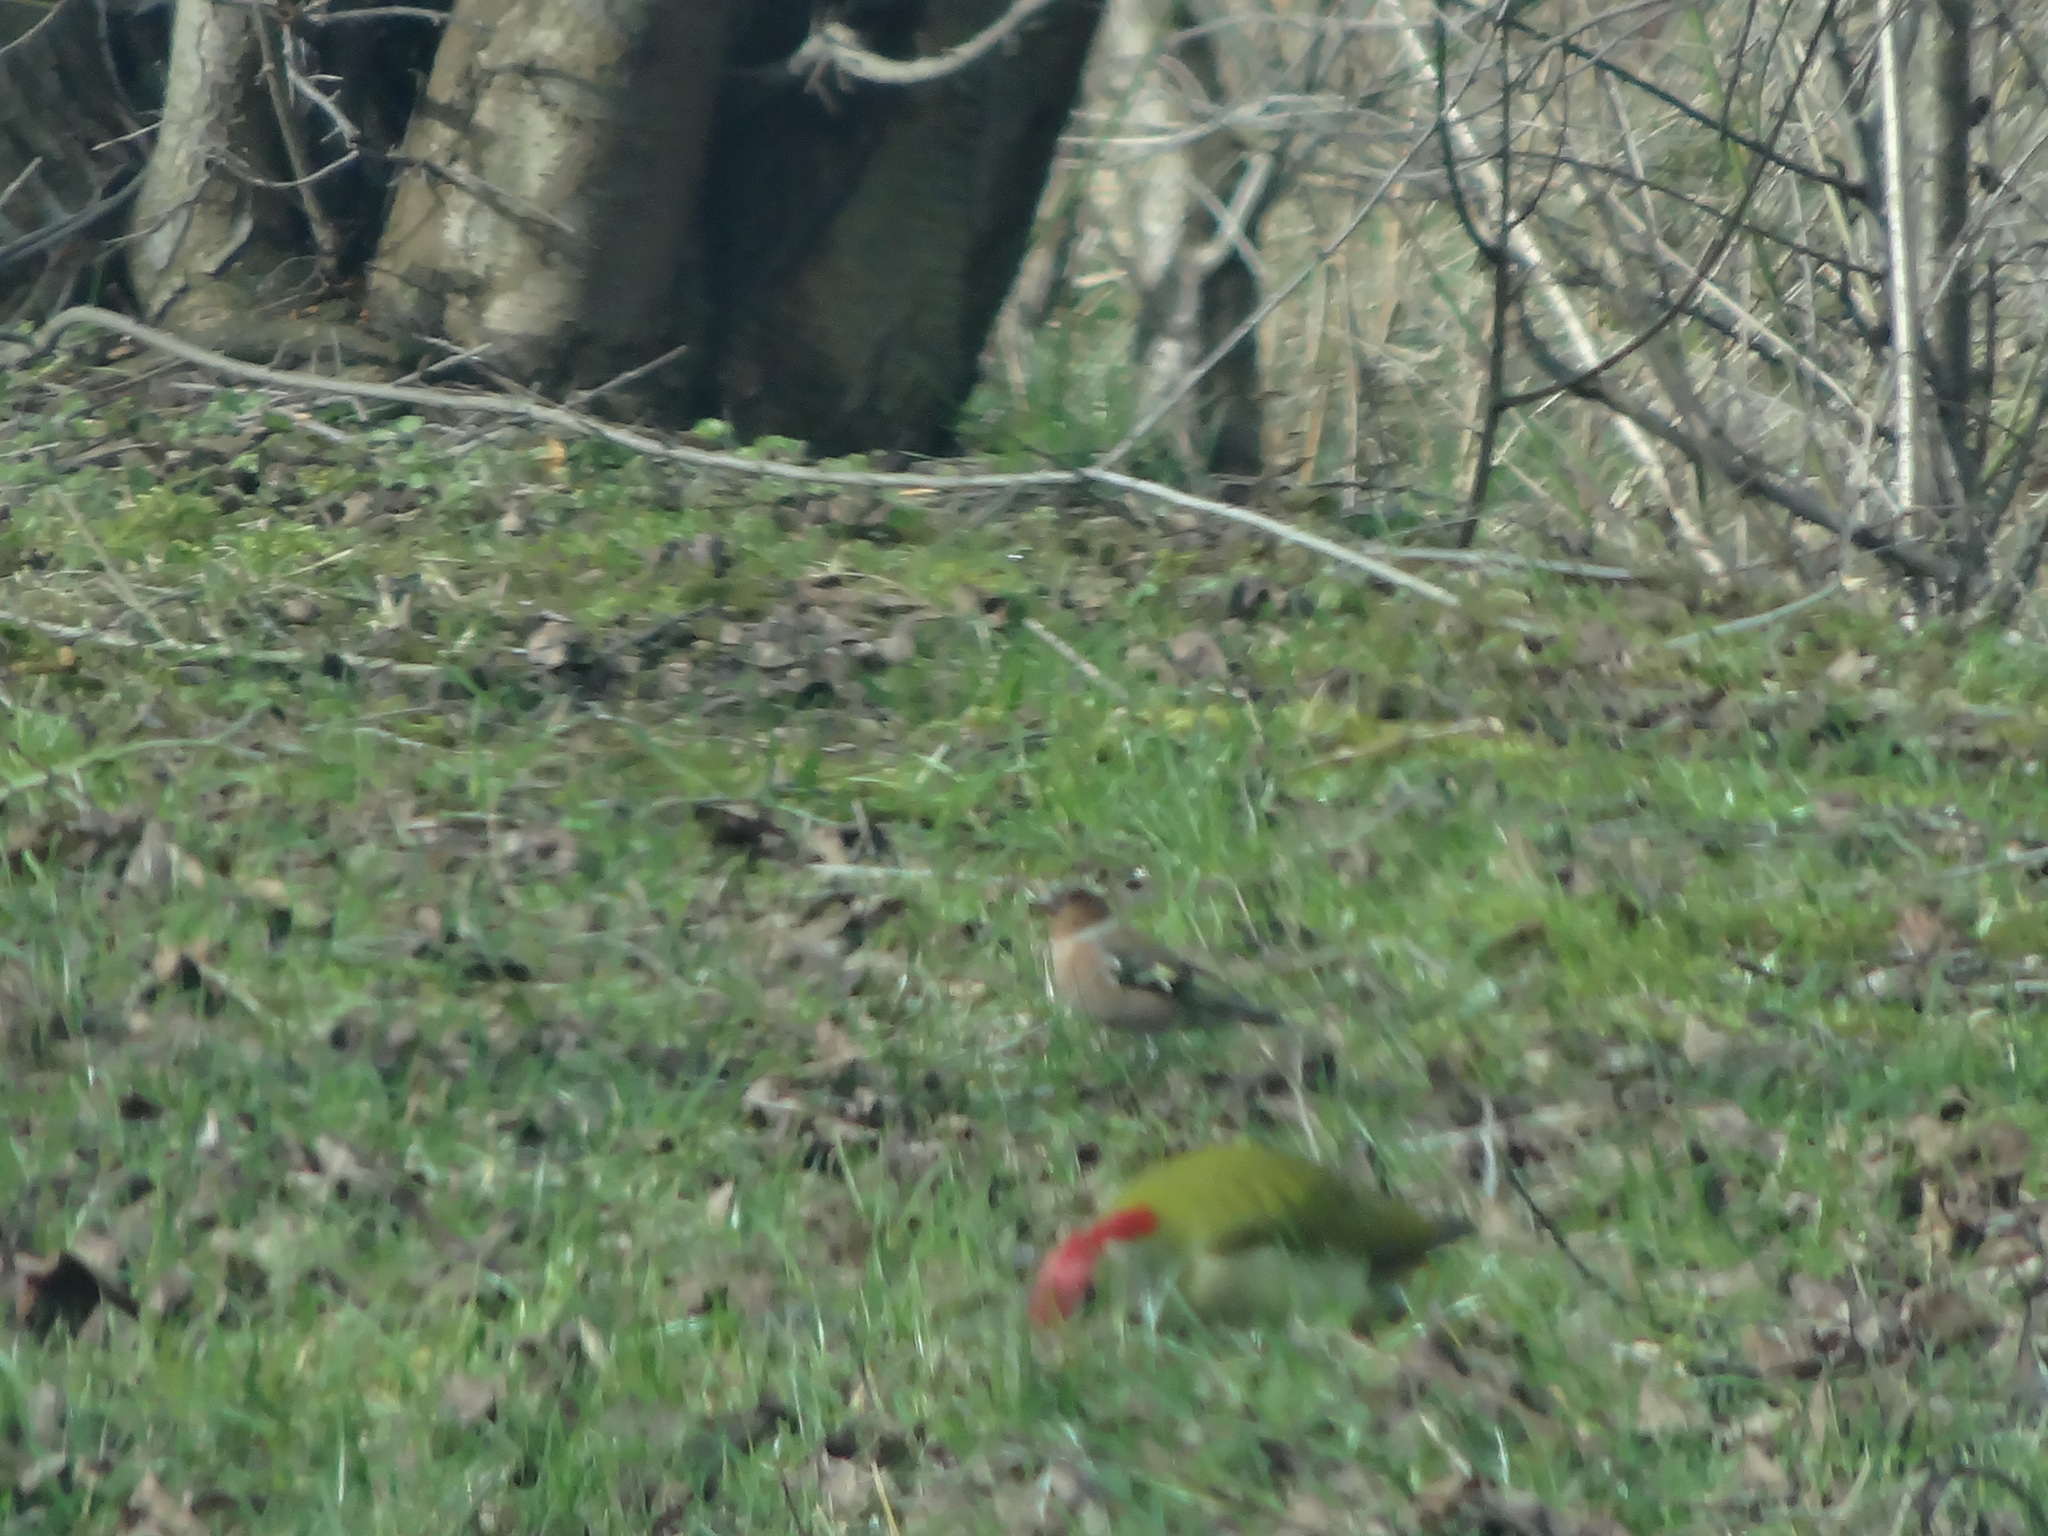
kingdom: Animalia
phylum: Chordata
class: Aves
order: Passeriformes
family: Fringillidae
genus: Fringilla
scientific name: Fringilla coelebs
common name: Common chaffinch
